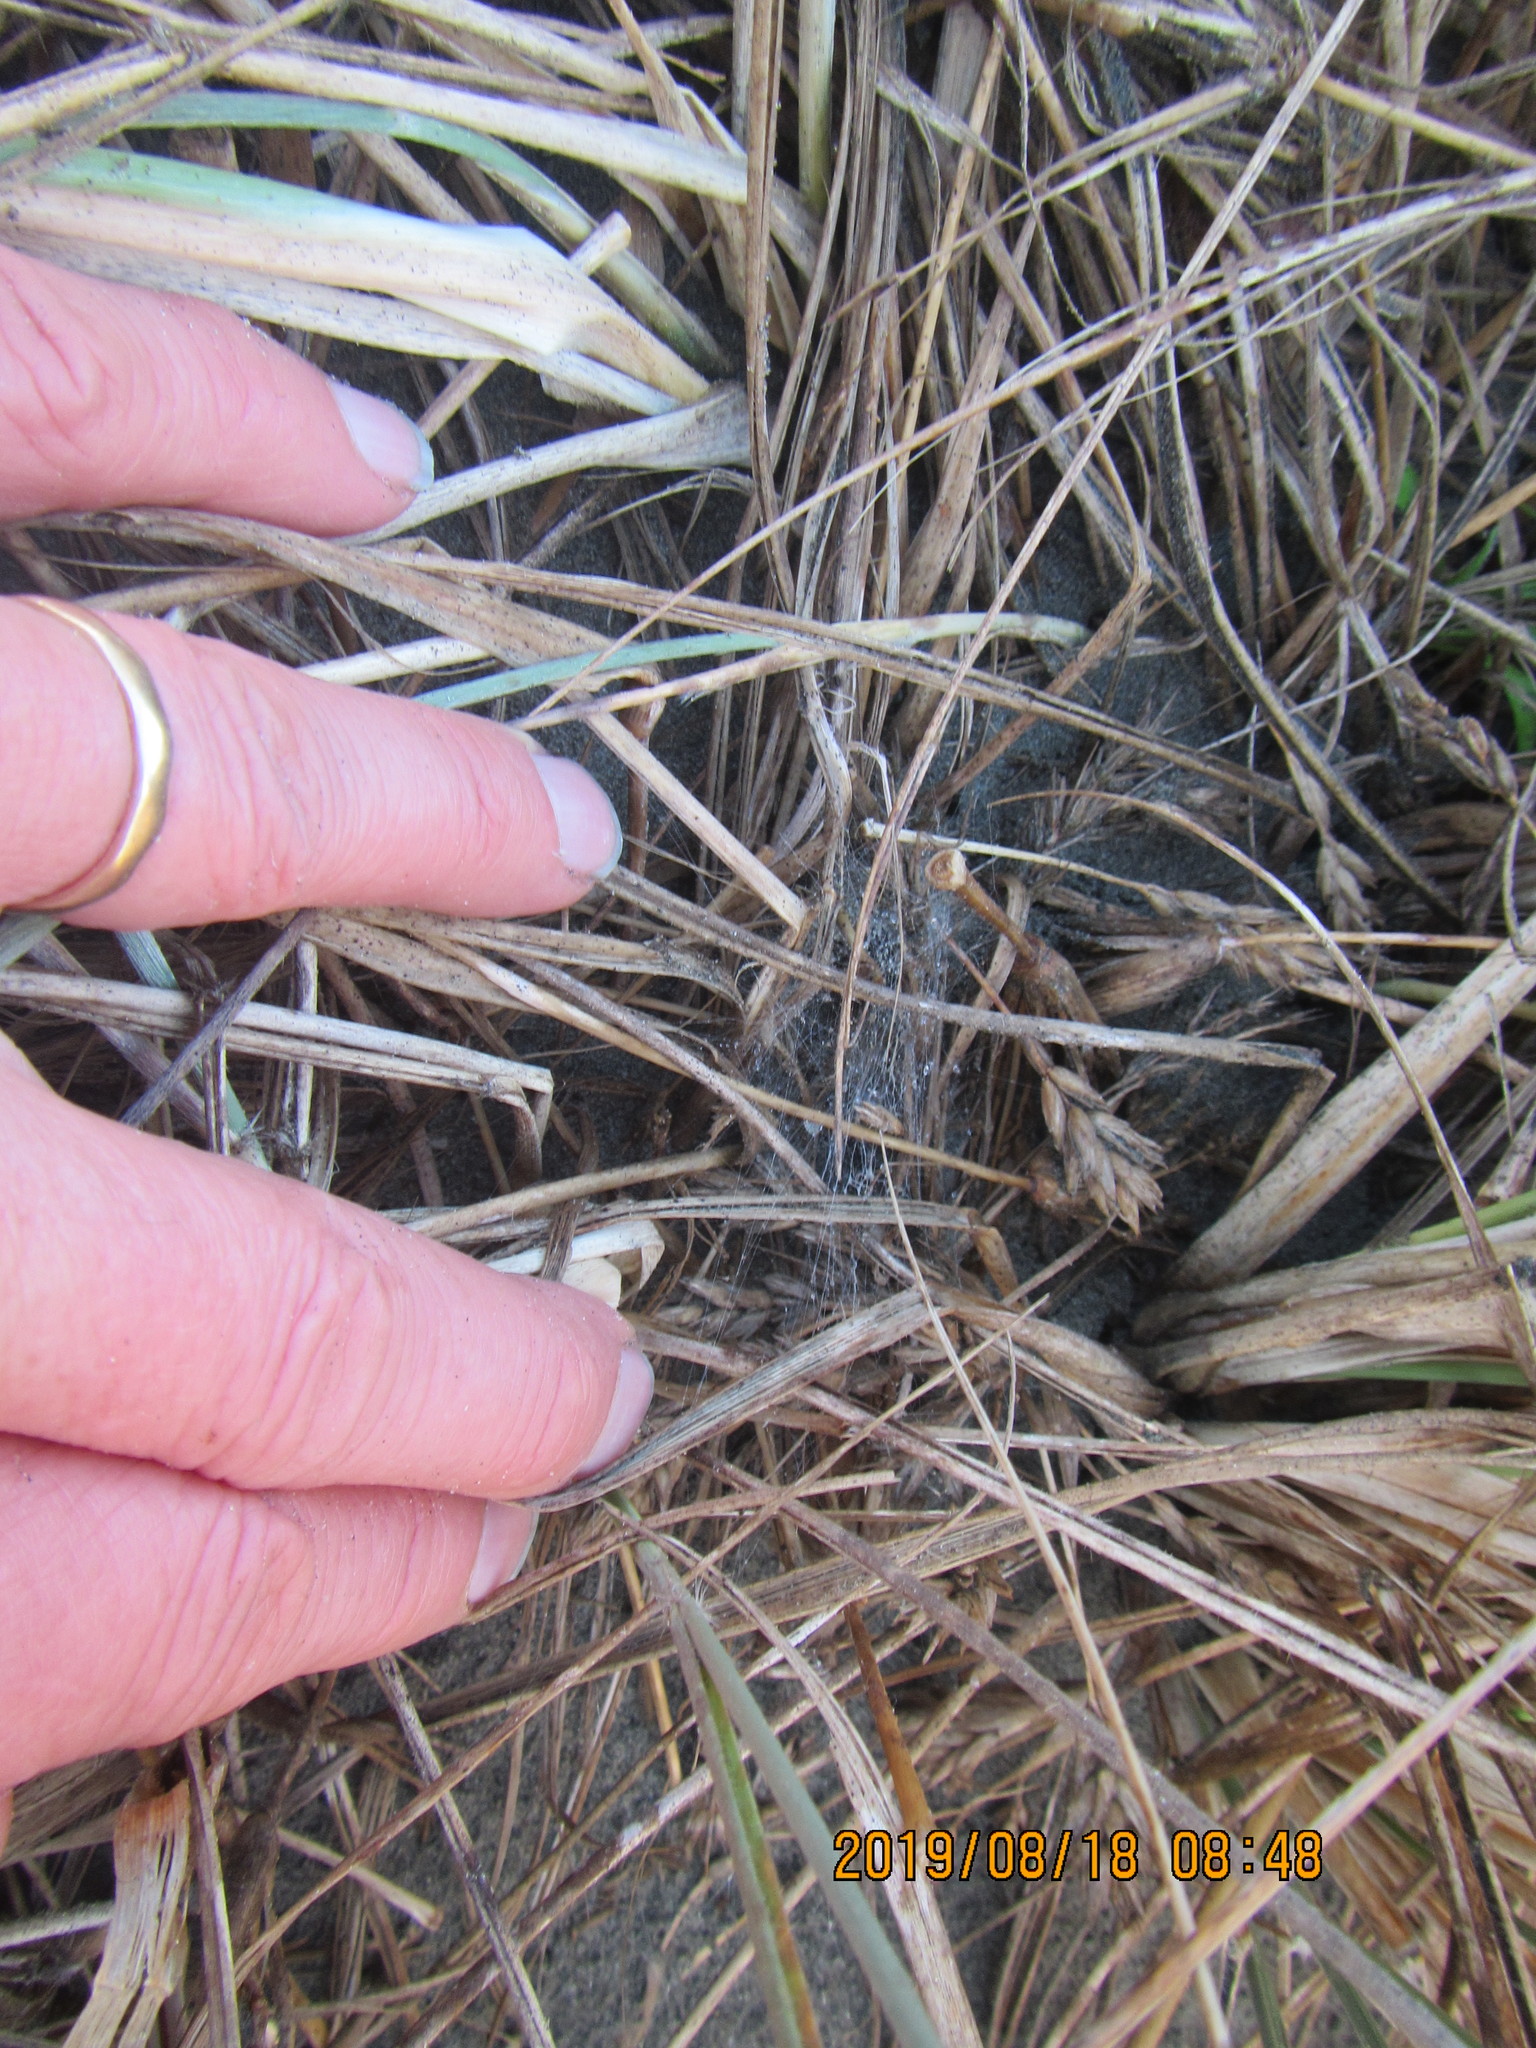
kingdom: Animalia
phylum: Arthropoda
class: Arachnida
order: Araneae
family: Theridiidae
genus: Latrodectus
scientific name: Latrodectus katipo
